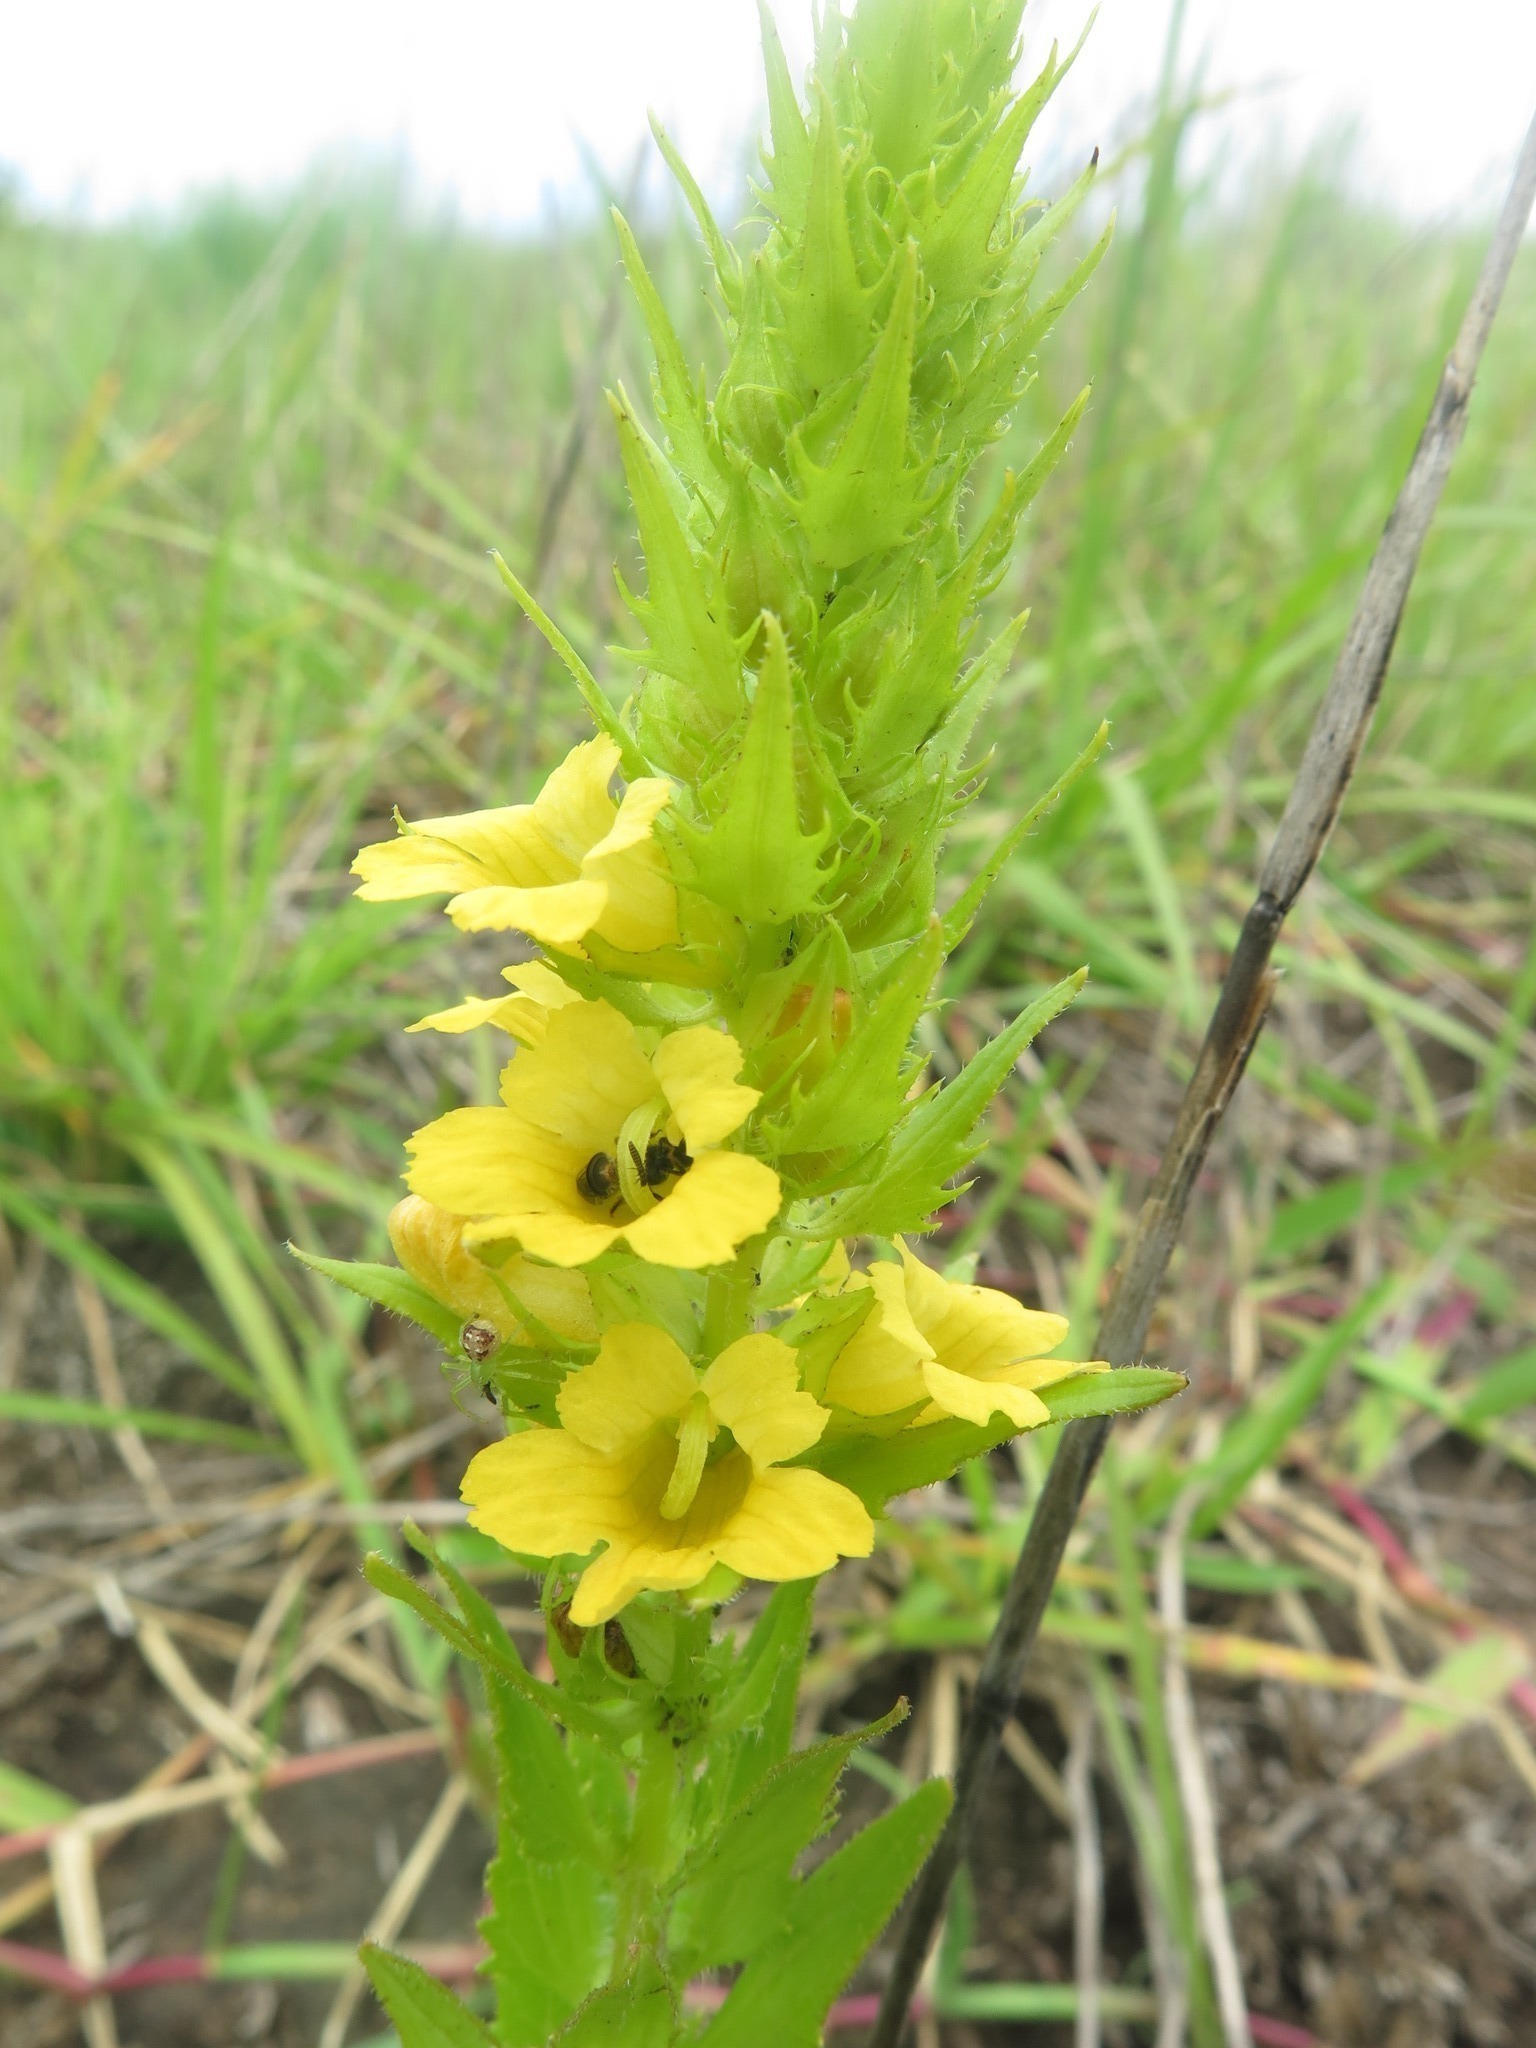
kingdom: Plantae
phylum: Tracheophyta
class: Magnoliopsida
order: Lamiales
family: Orobanchaceae
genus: Alectra
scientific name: Alectra sessiliflora
